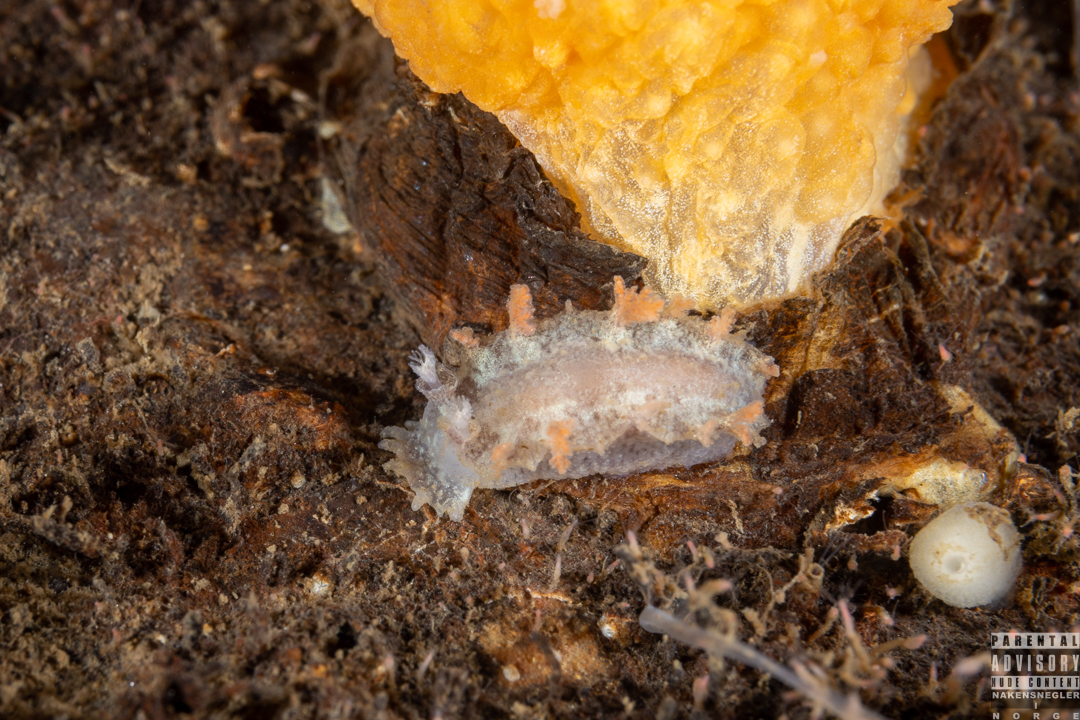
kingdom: Animalia
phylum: Mollusca
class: Gastropoda
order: Nudibranchia
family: Tritoniidae
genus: Duvaucelia
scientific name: Duvaucelia plebeia
